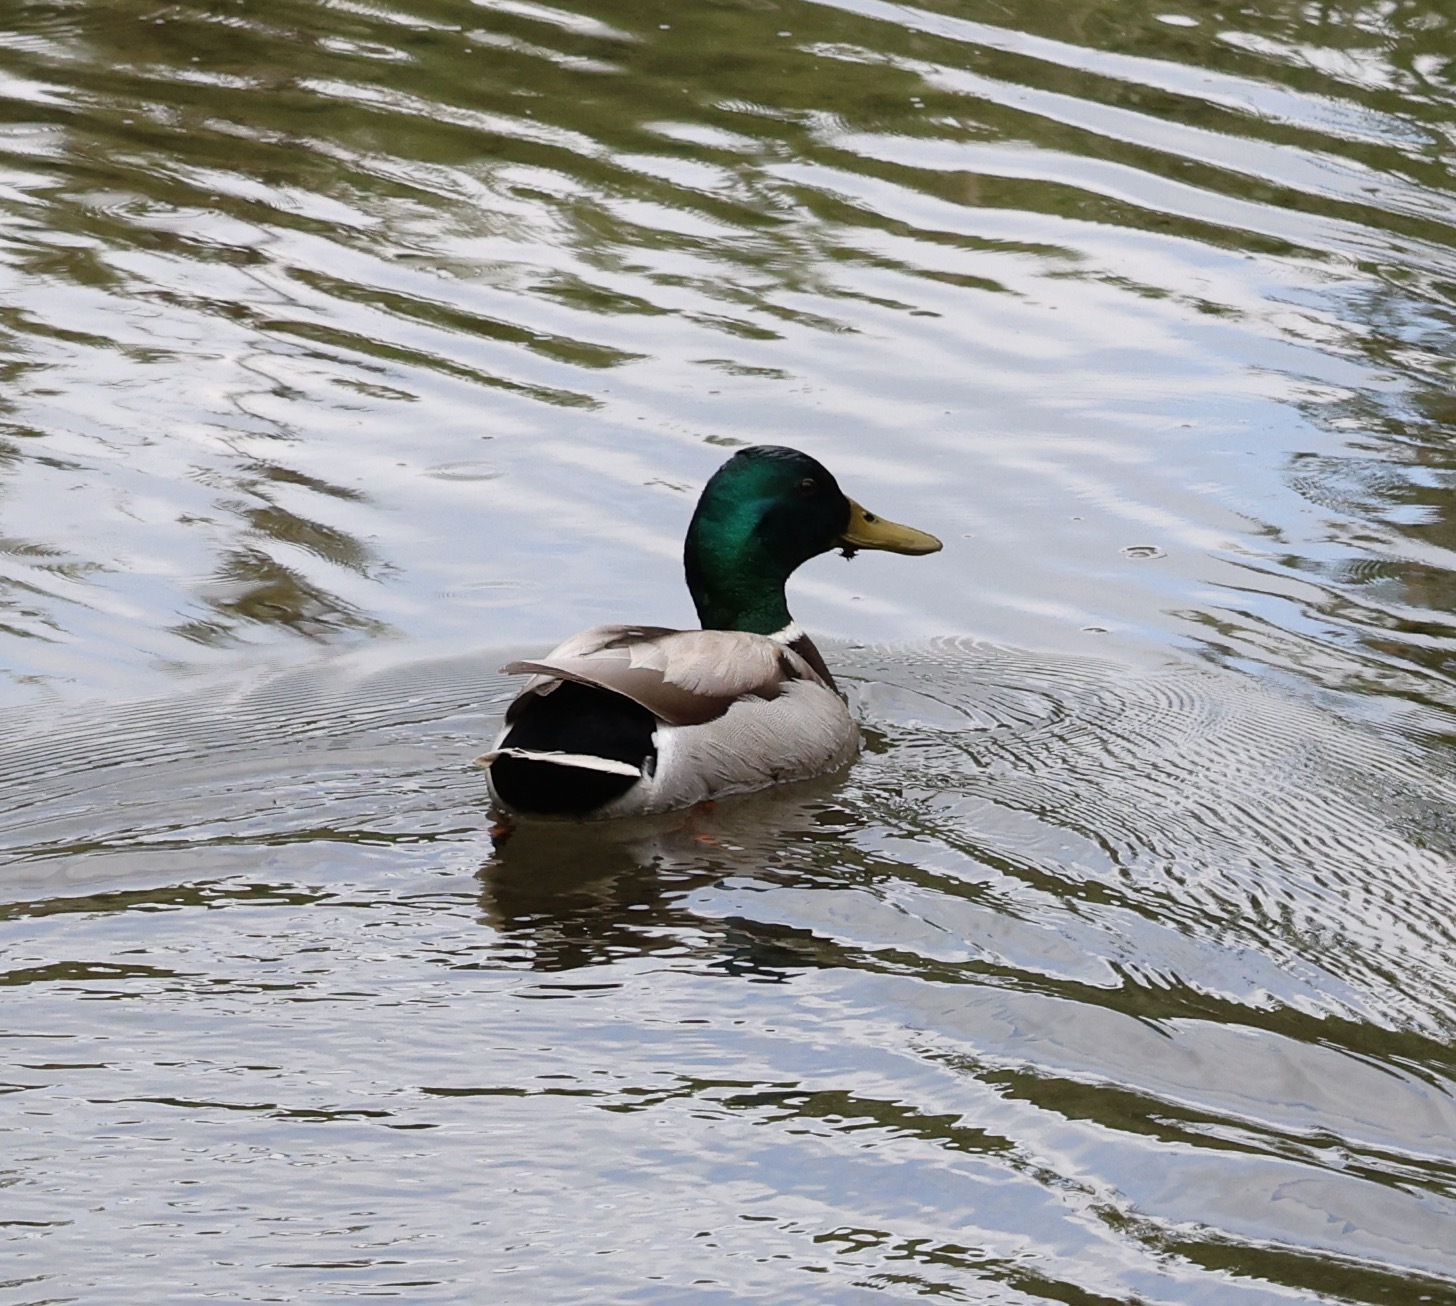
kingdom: Animalia
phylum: Chordata
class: Aves
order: Anseriformes
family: Anatidae
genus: Anas
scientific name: Anas platyrhynchos
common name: Mallard
